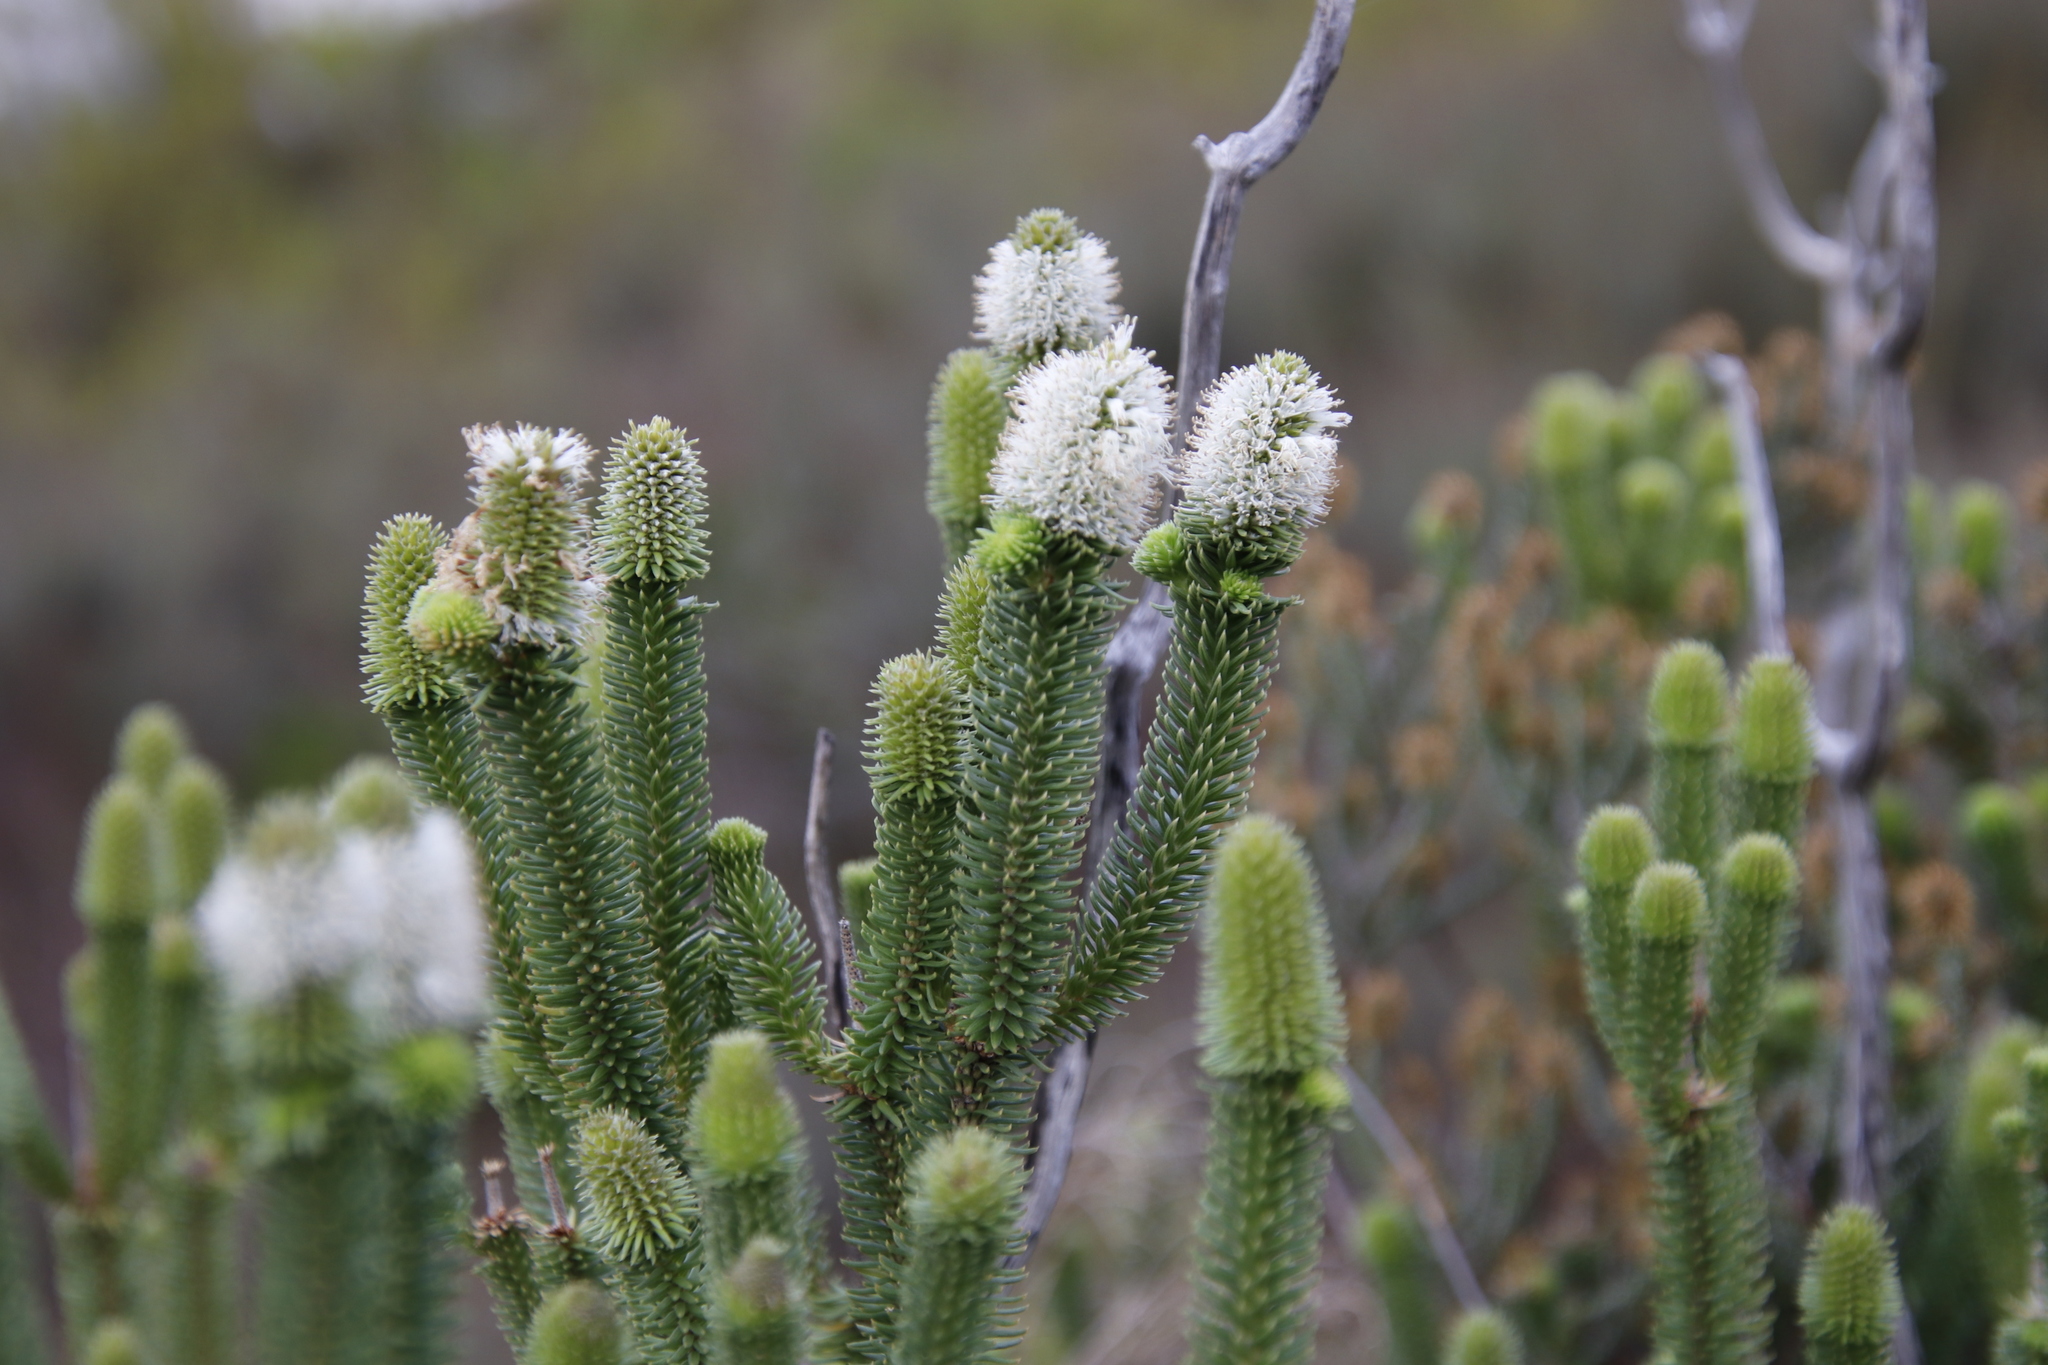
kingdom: Plantae
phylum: Tracheophyta
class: Magnoliopsida
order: Lamiales
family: Stilbaceae
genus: Stilbe
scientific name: Stilbe vestita
